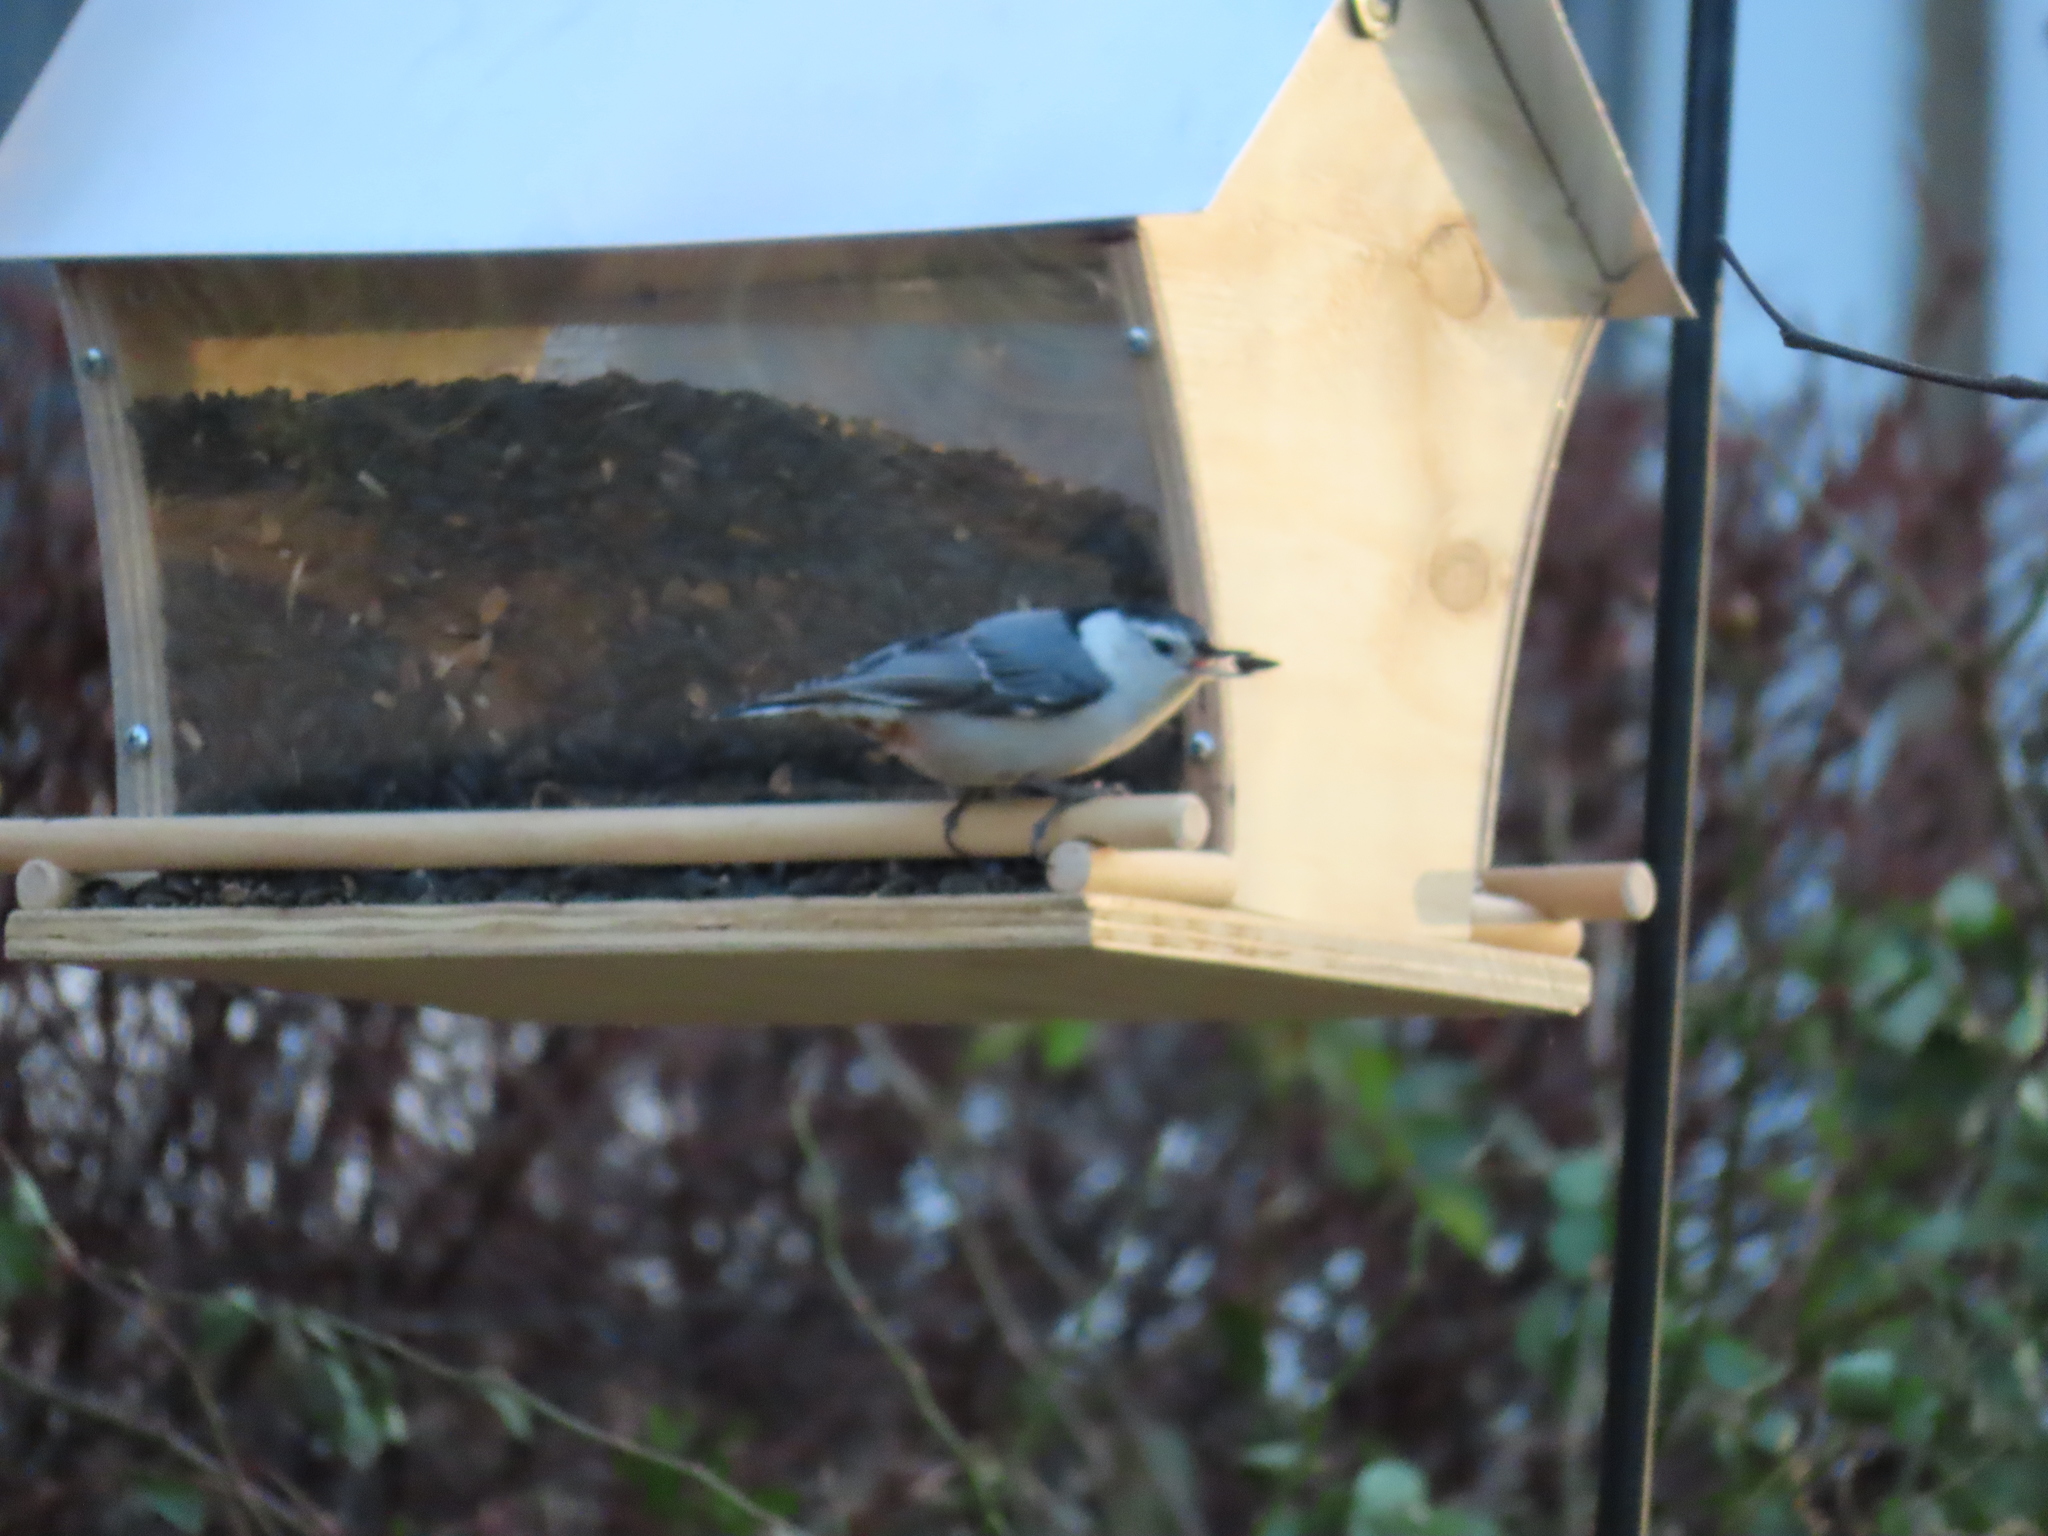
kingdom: Animalia
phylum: Chordata
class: Aves
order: Passeriformes
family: Sittidae
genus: Sitta
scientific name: Sitta carolinensis
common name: White-breasted nuthatch
